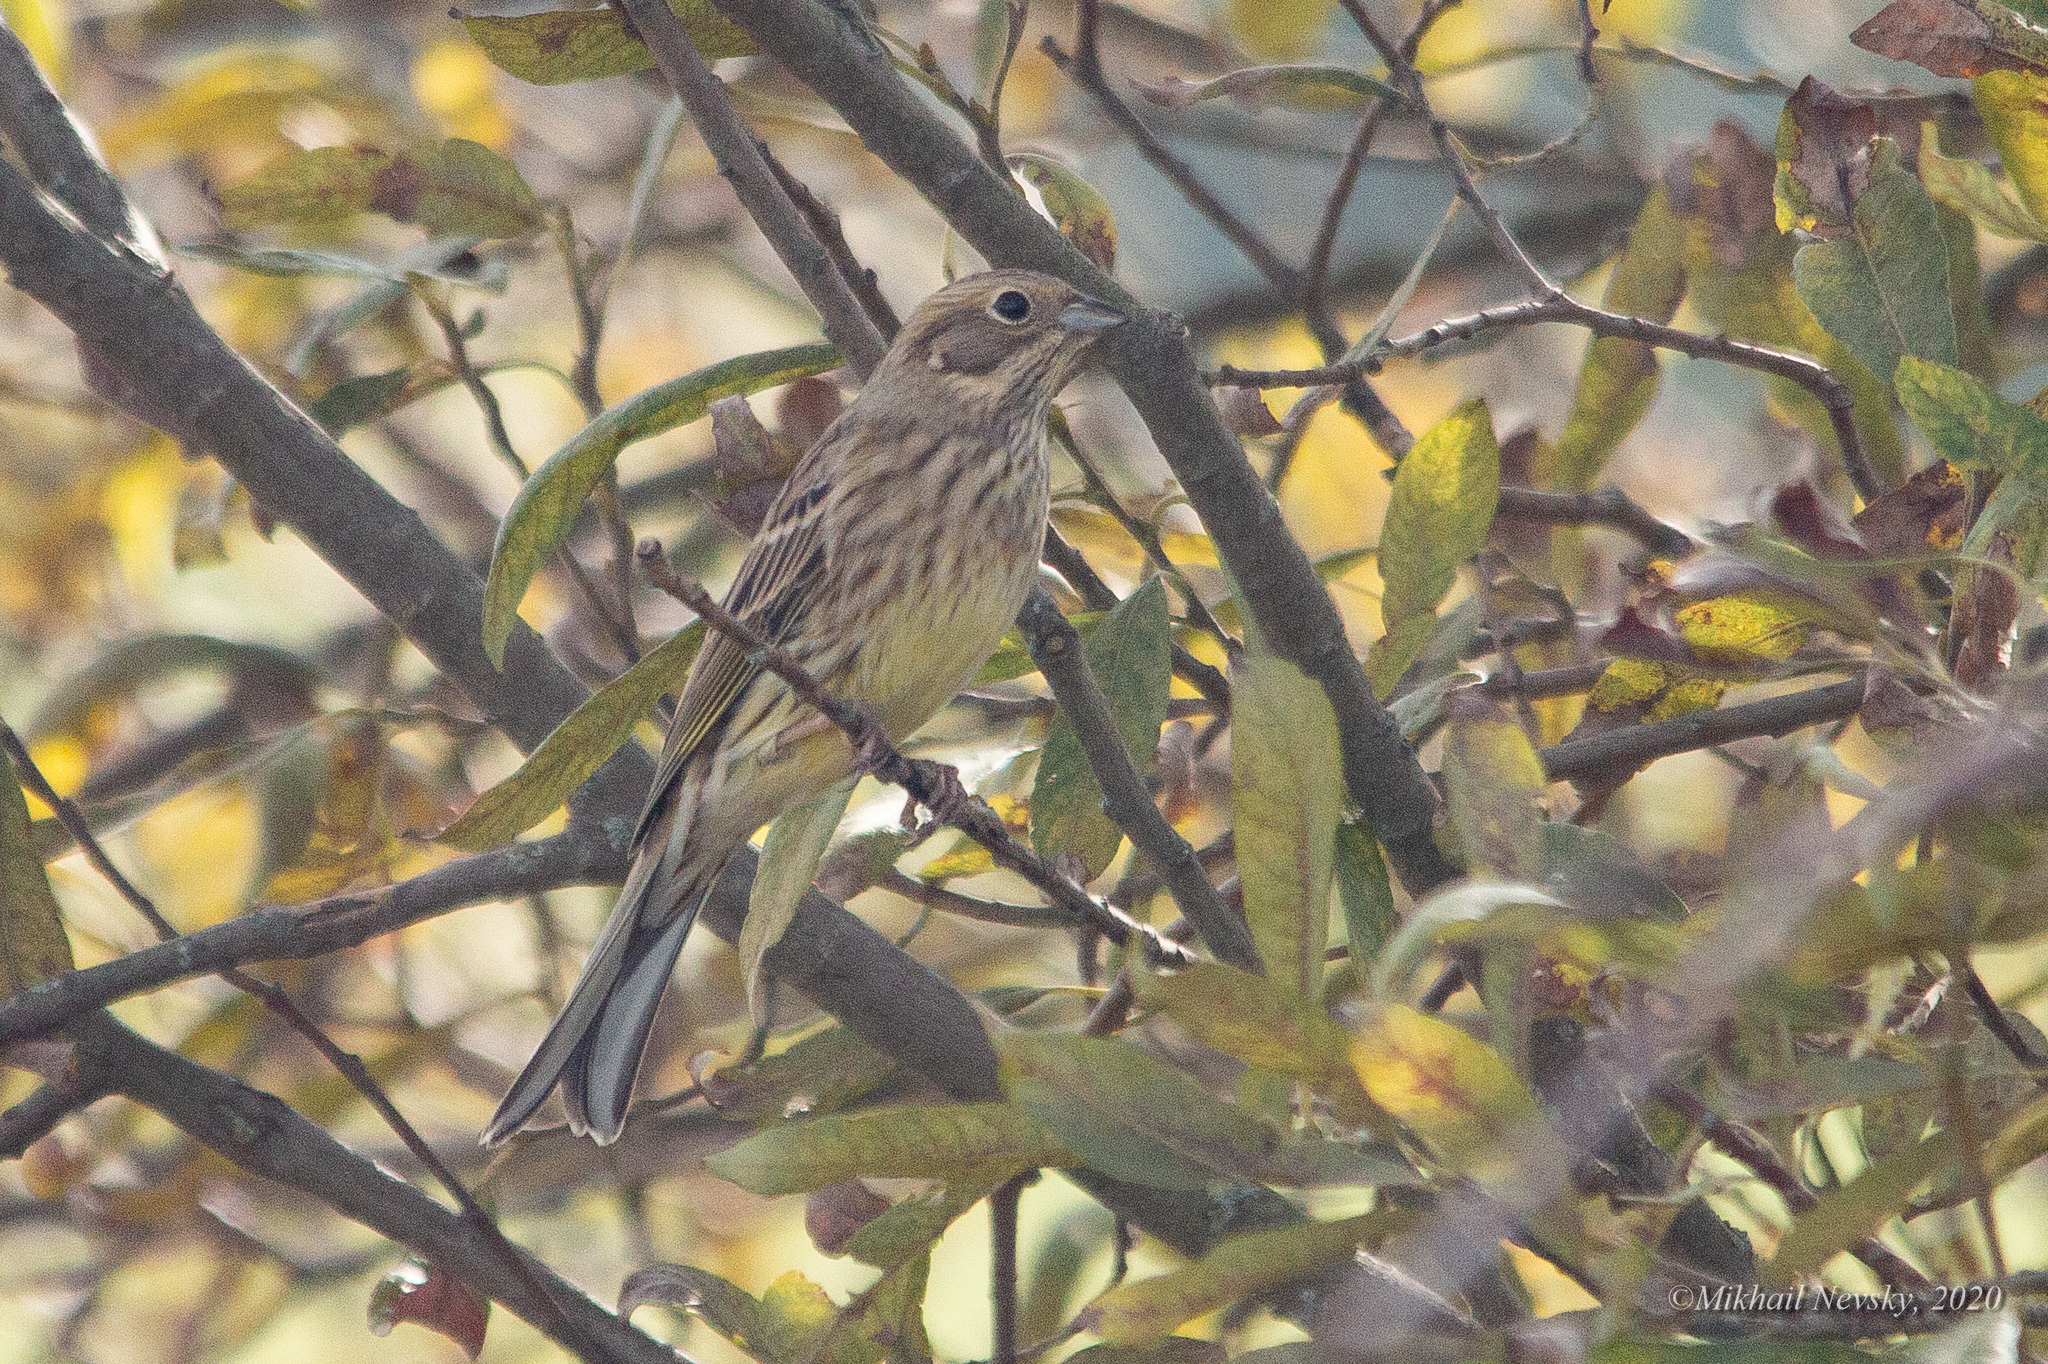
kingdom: Animalia
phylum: Chordata
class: Aves
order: Passeriformes
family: Emberizidae
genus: Emberiza
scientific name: Emberiza citrinella
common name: Yellowhammer
